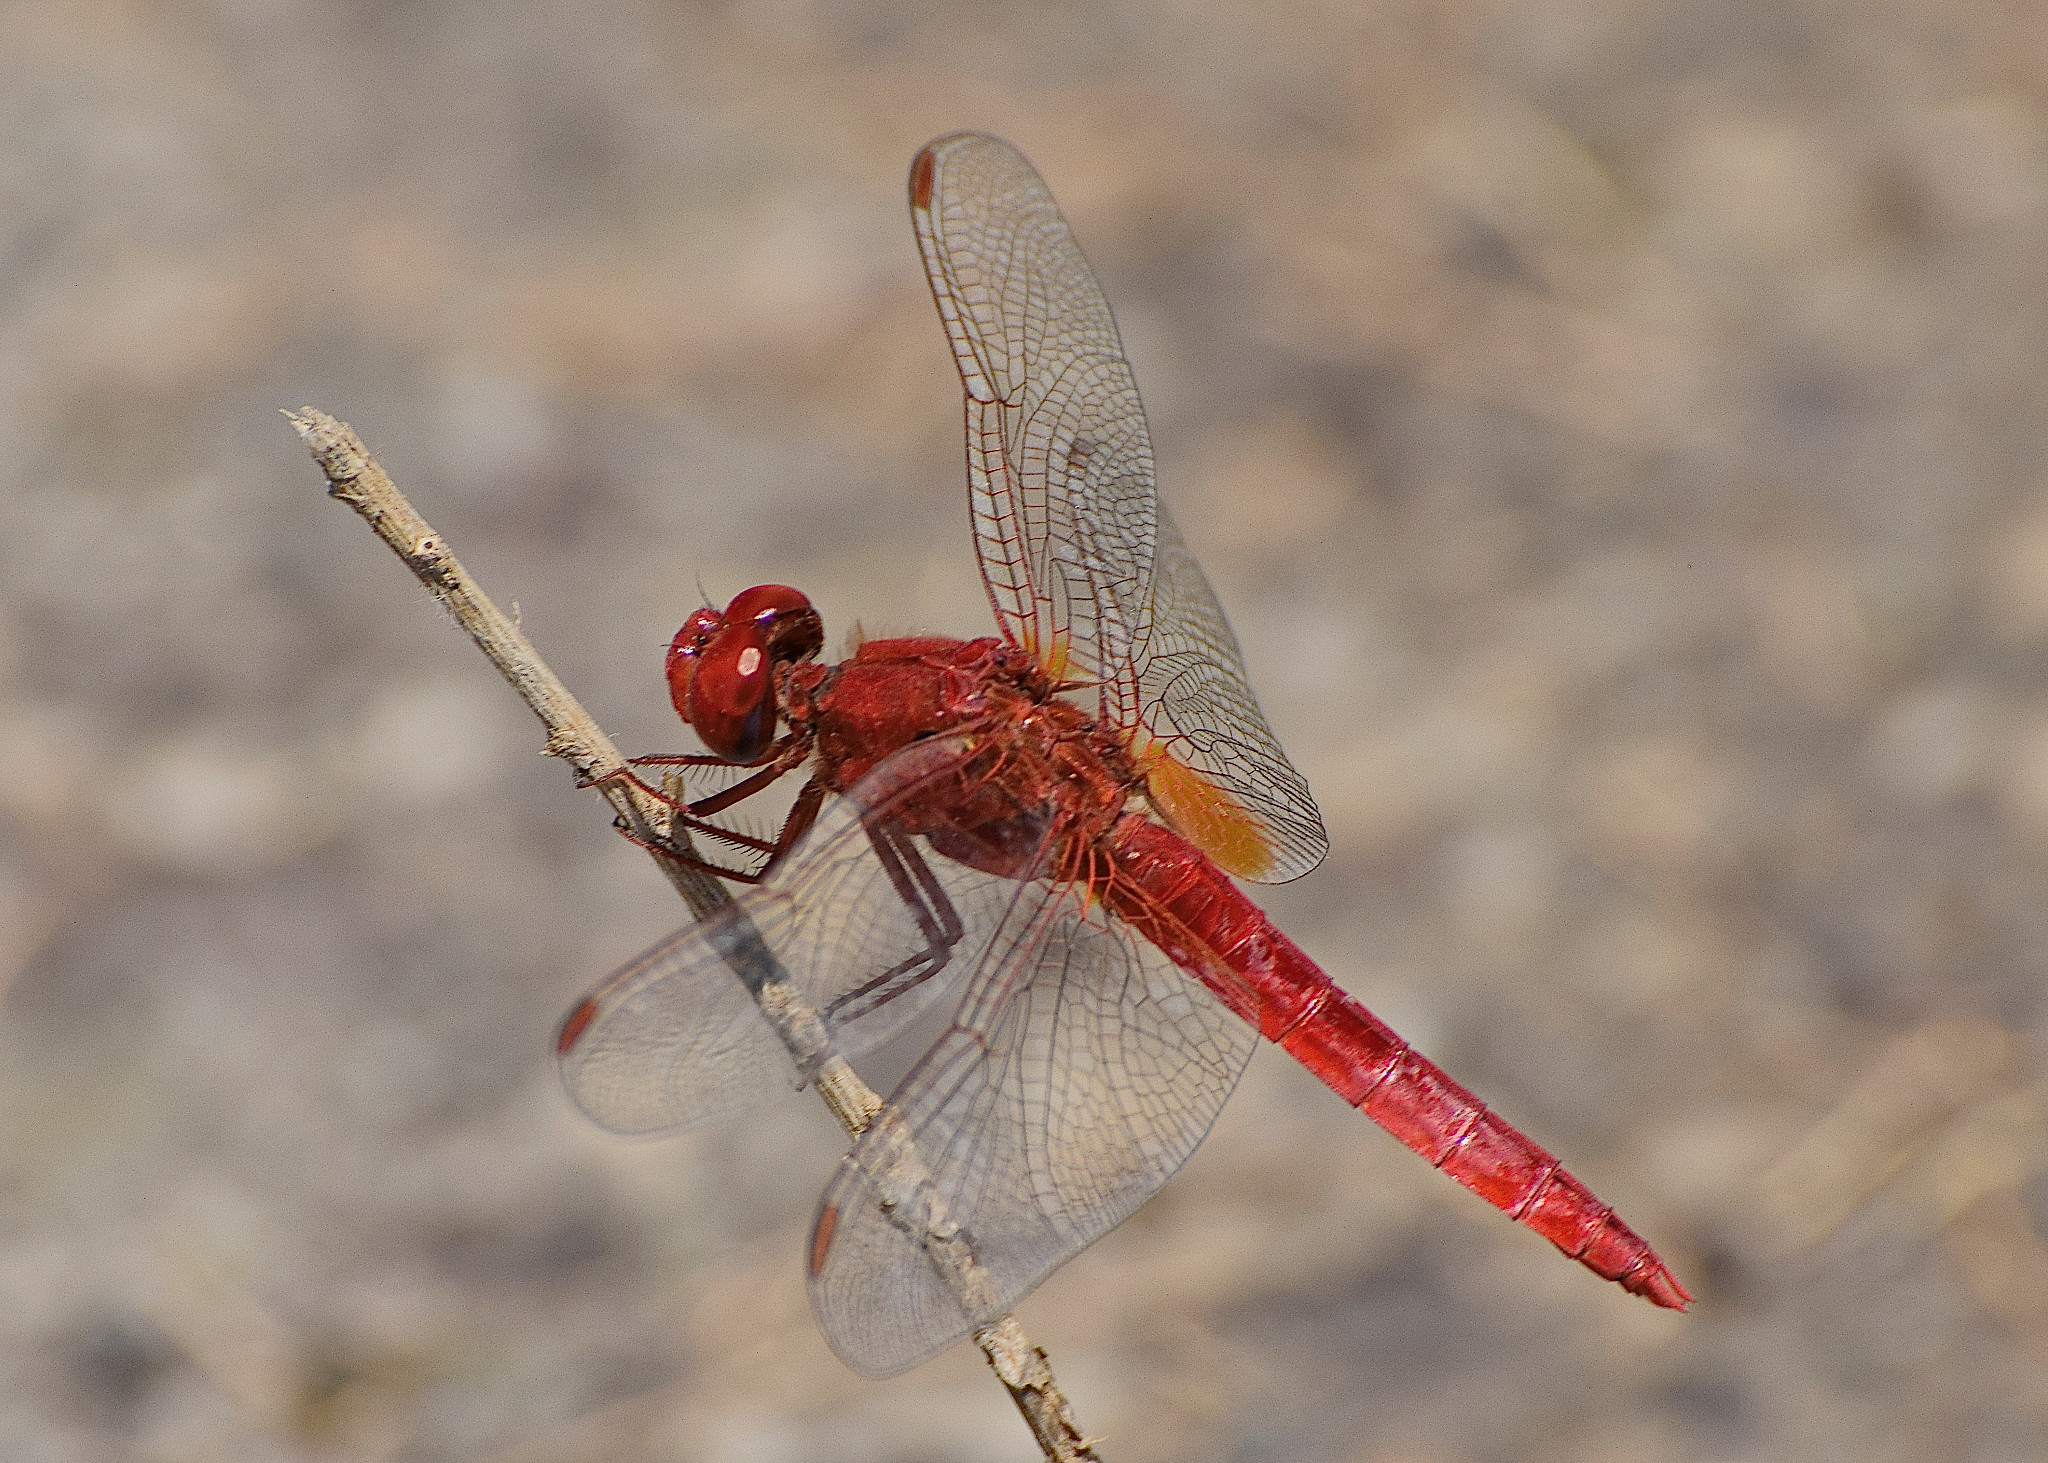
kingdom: Animalia
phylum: Arthropoda
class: Insecta
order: Odonata
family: Libellulidae
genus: Crocothemis
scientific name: Crocothemis erythraea
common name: Scarlet dragonfly
